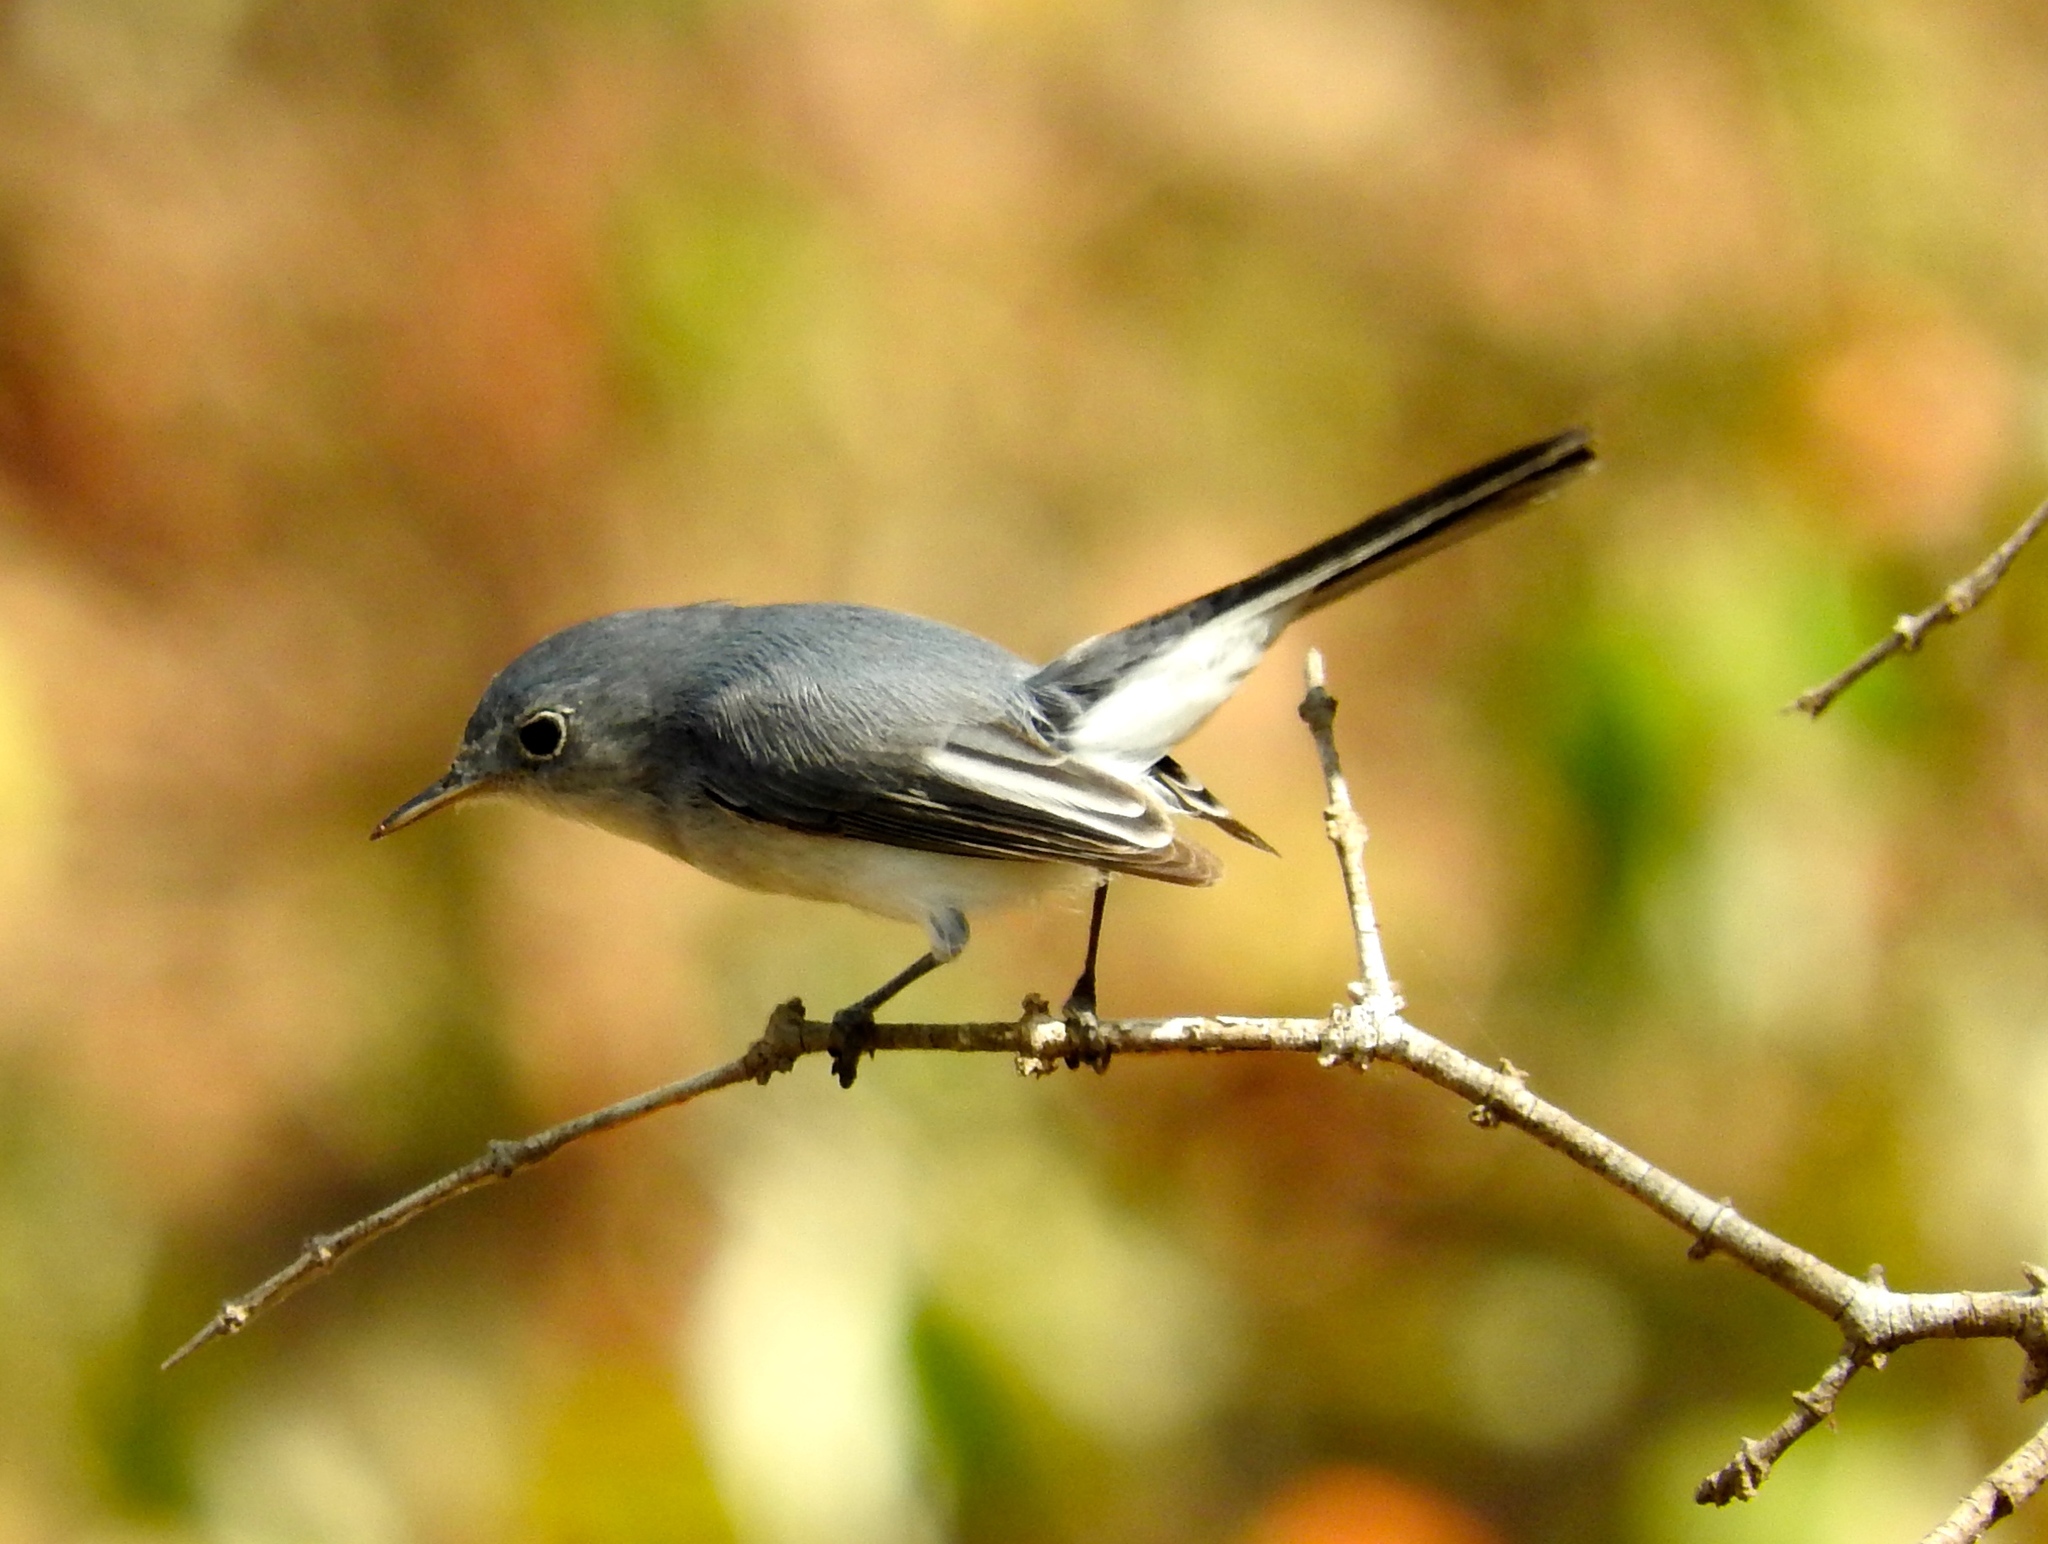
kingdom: Animalia
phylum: Chordata
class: Aves
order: Passeriformes
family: Polioptilidae
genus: Polioptila
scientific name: Polioptila caerulea
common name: Blue-gray gnatcatcher
